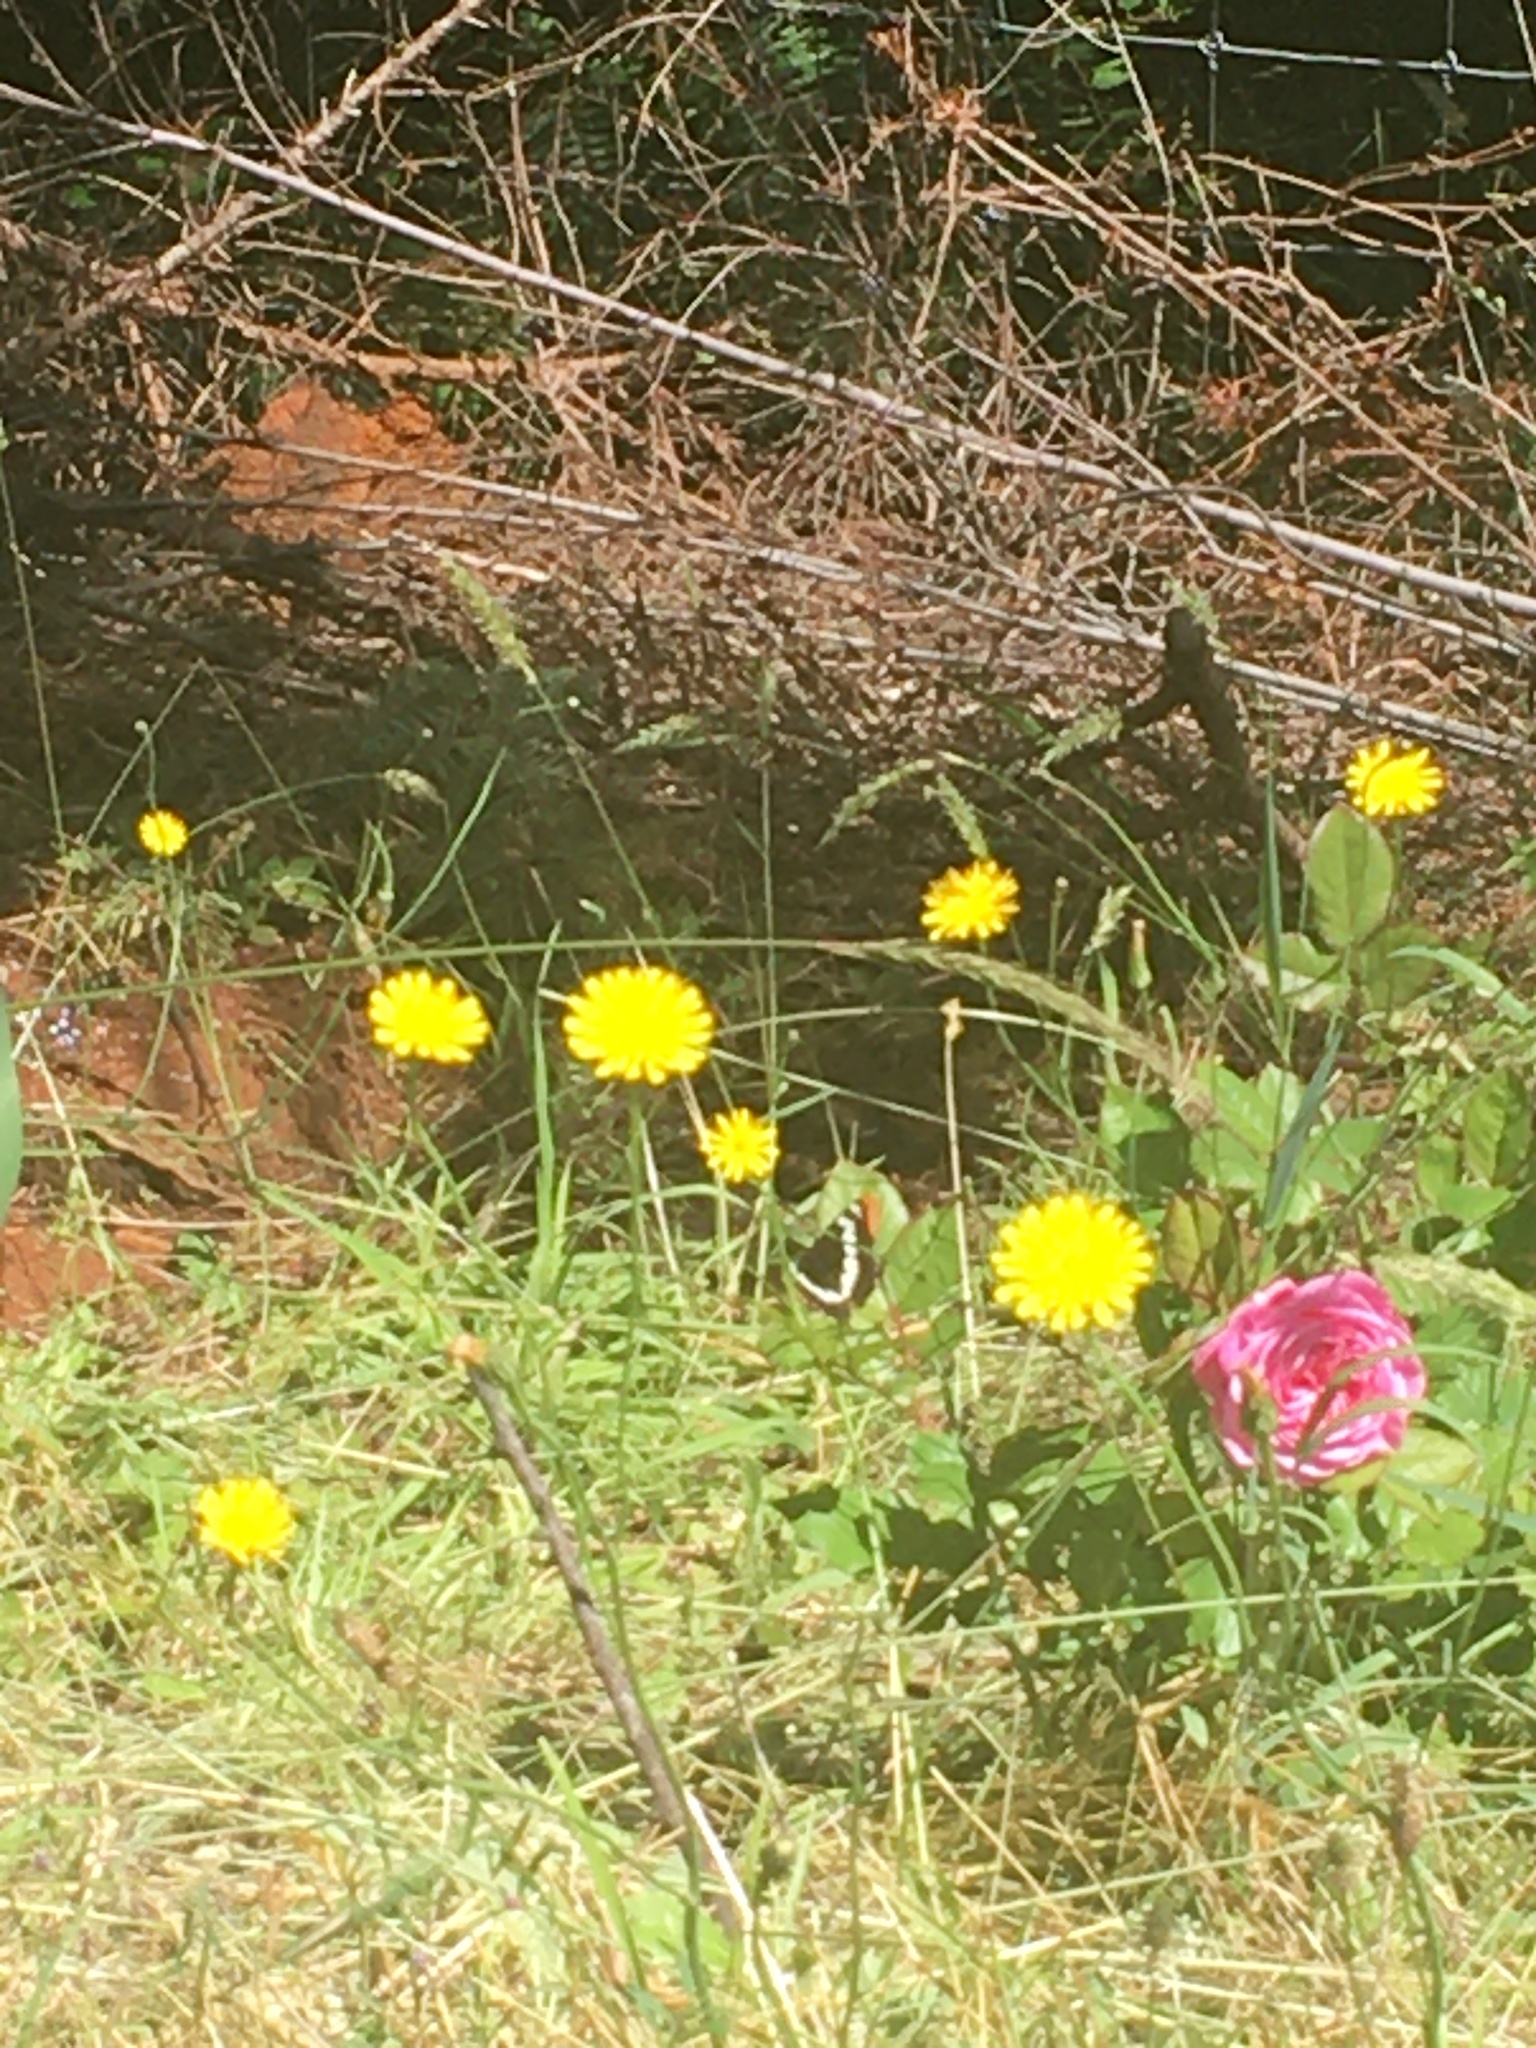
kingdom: Animalia
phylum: Arthropoda
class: Insecta
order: Lepidoptera
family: Nymphalidae
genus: Limenitis
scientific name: Limenitis lorquini
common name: Lorquin's admiral
